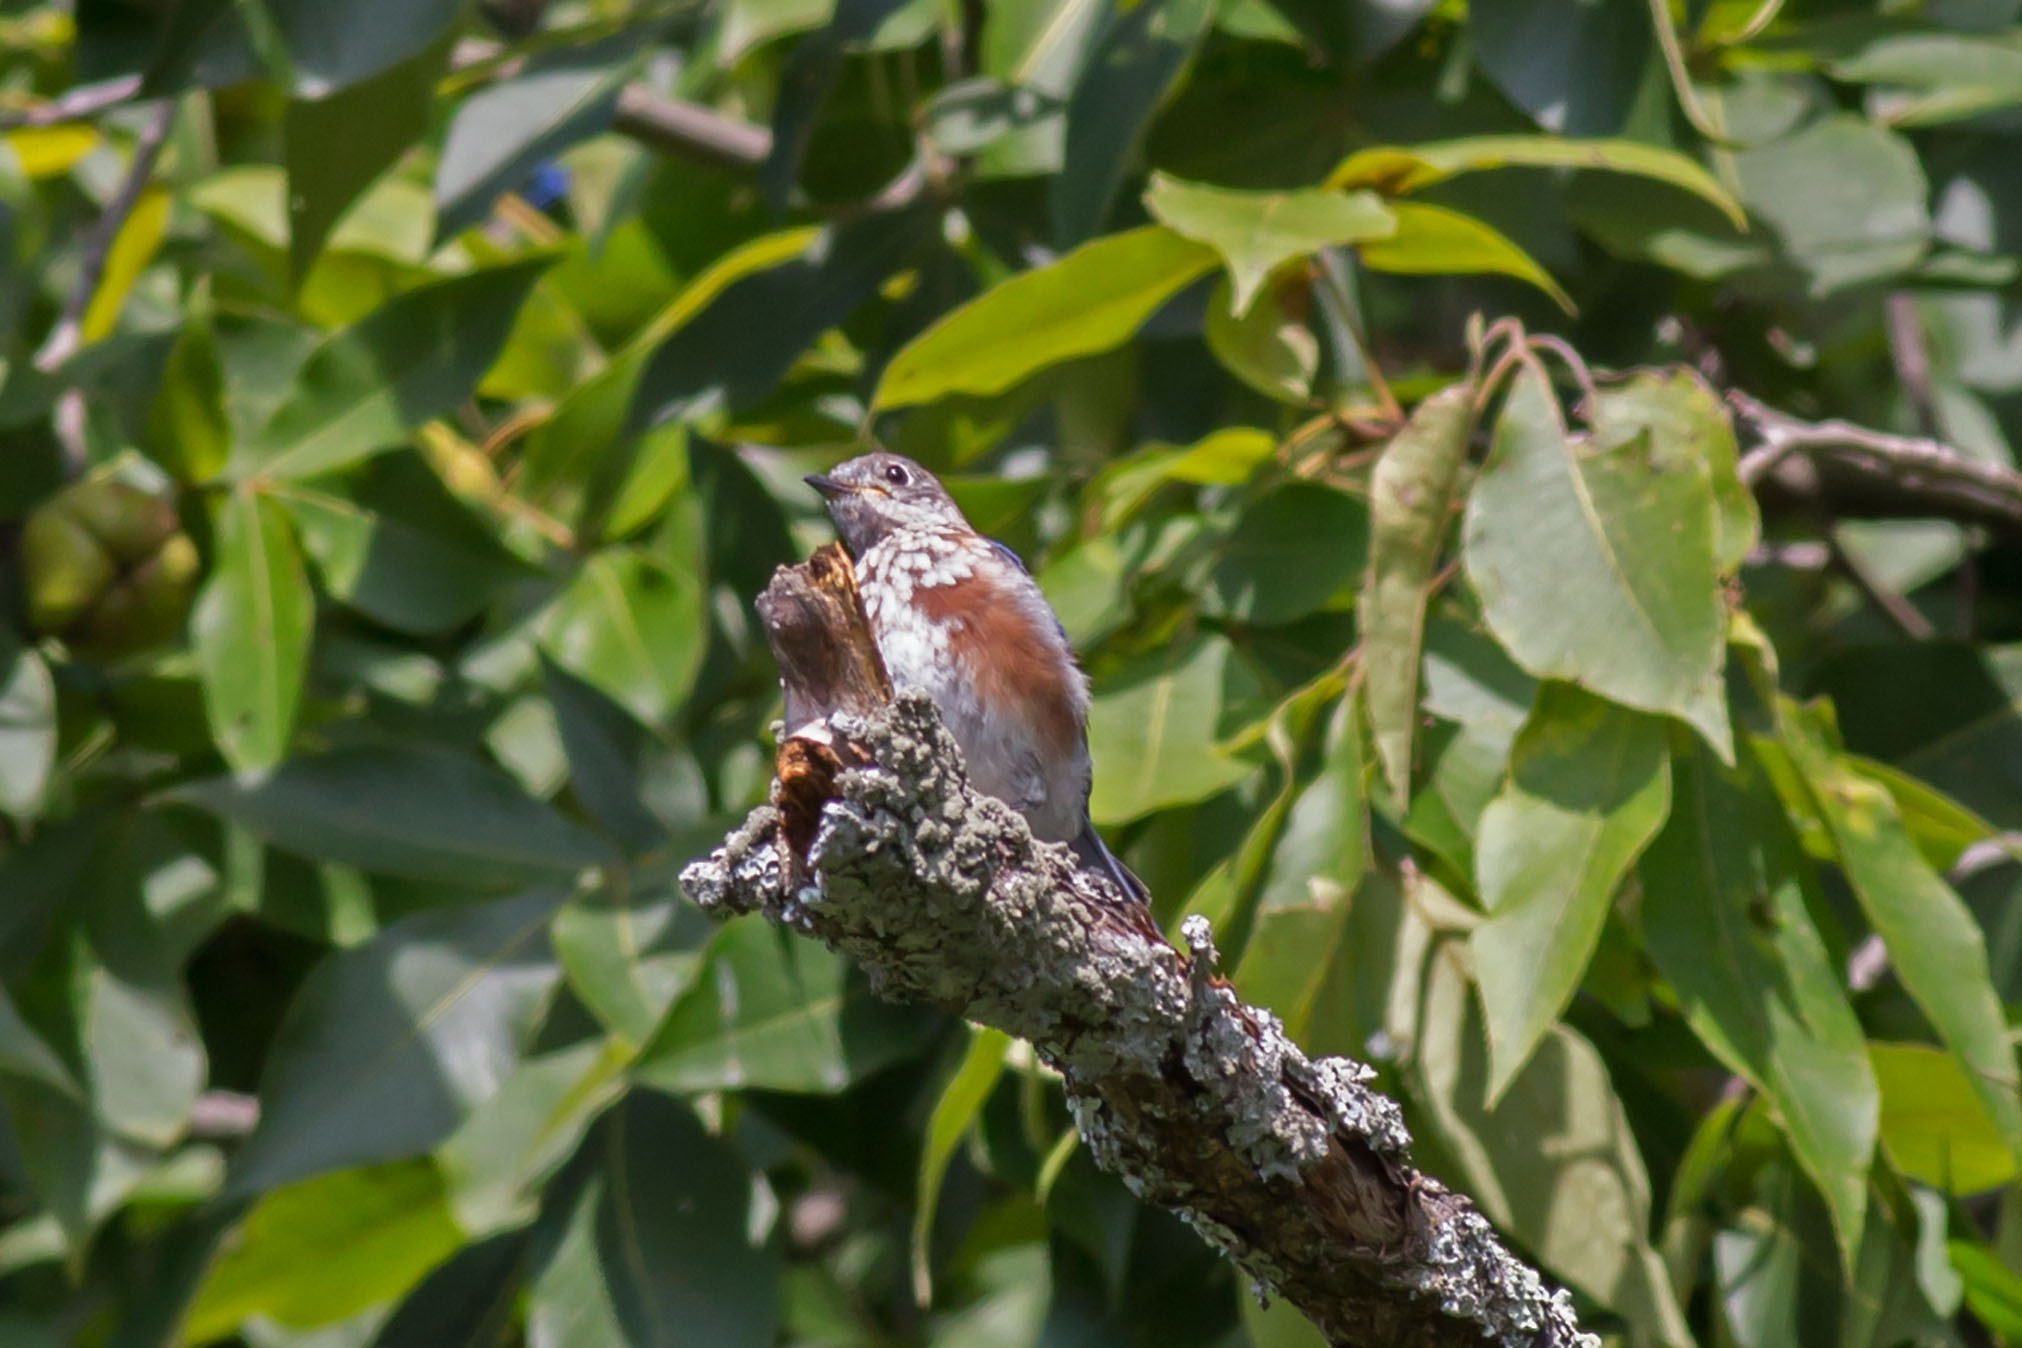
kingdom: Animalia
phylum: Chordata
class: Aves
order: Passeriformes
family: Turdidae
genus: Sialia
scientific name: Sialia sialis
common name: Eastern bluebird
